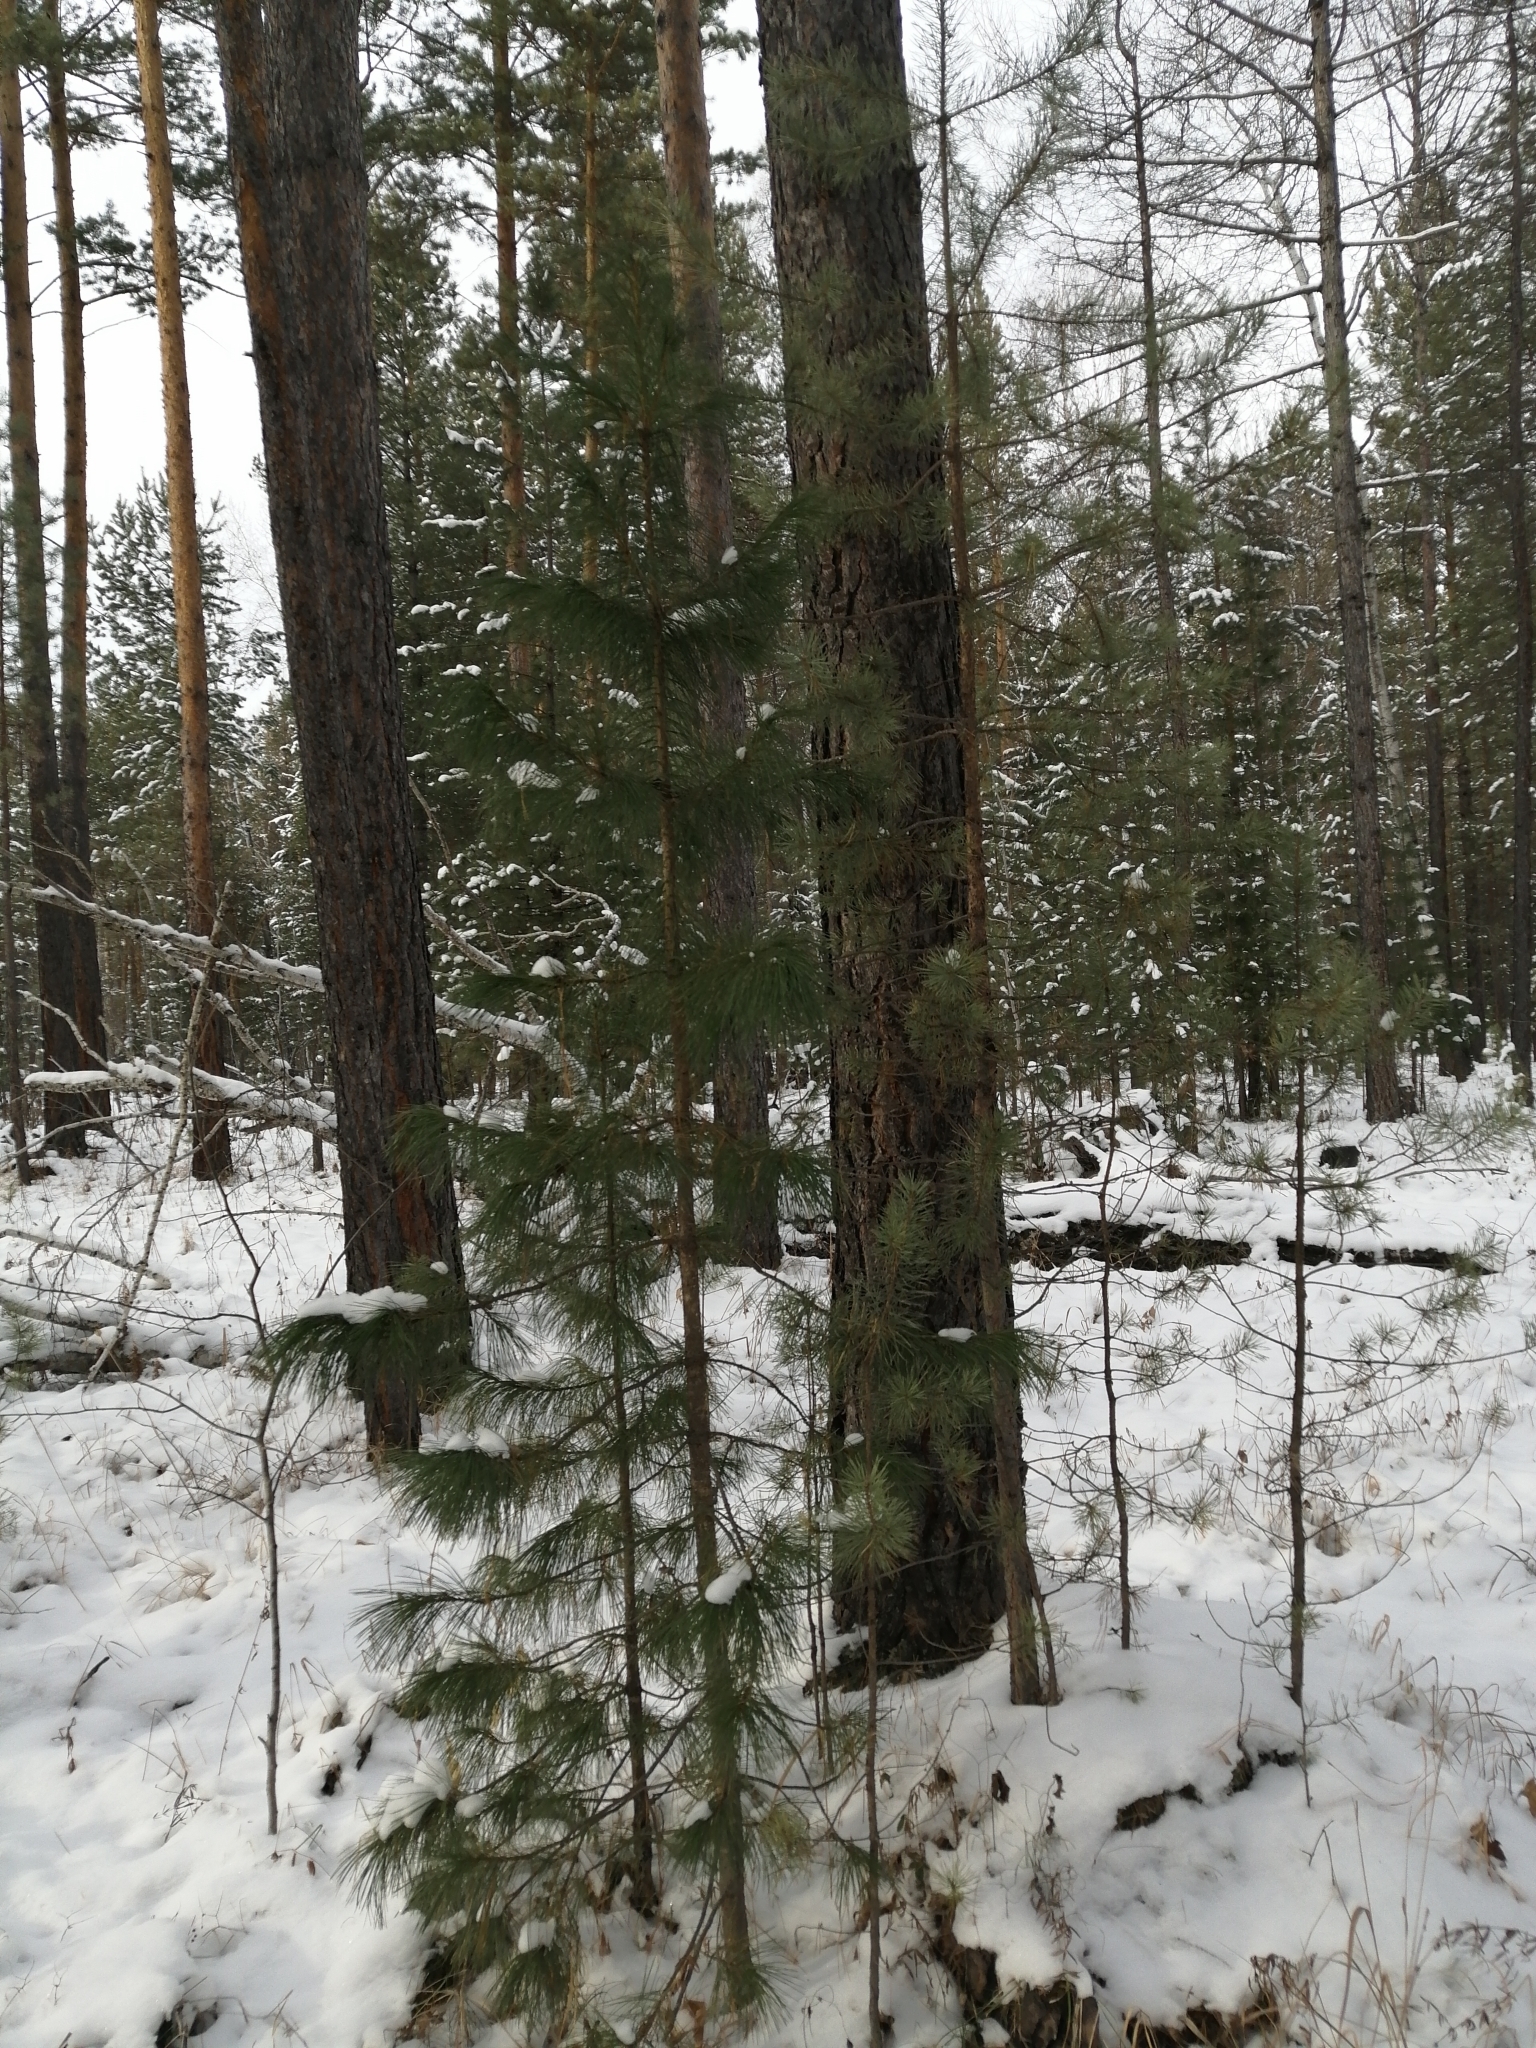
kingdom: Plantae
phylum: Tracheophyta
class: Pinopsida
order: Pinales
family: Pinaceae
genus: Pinus
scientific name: Pinus sibirica
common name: Siberian pine
